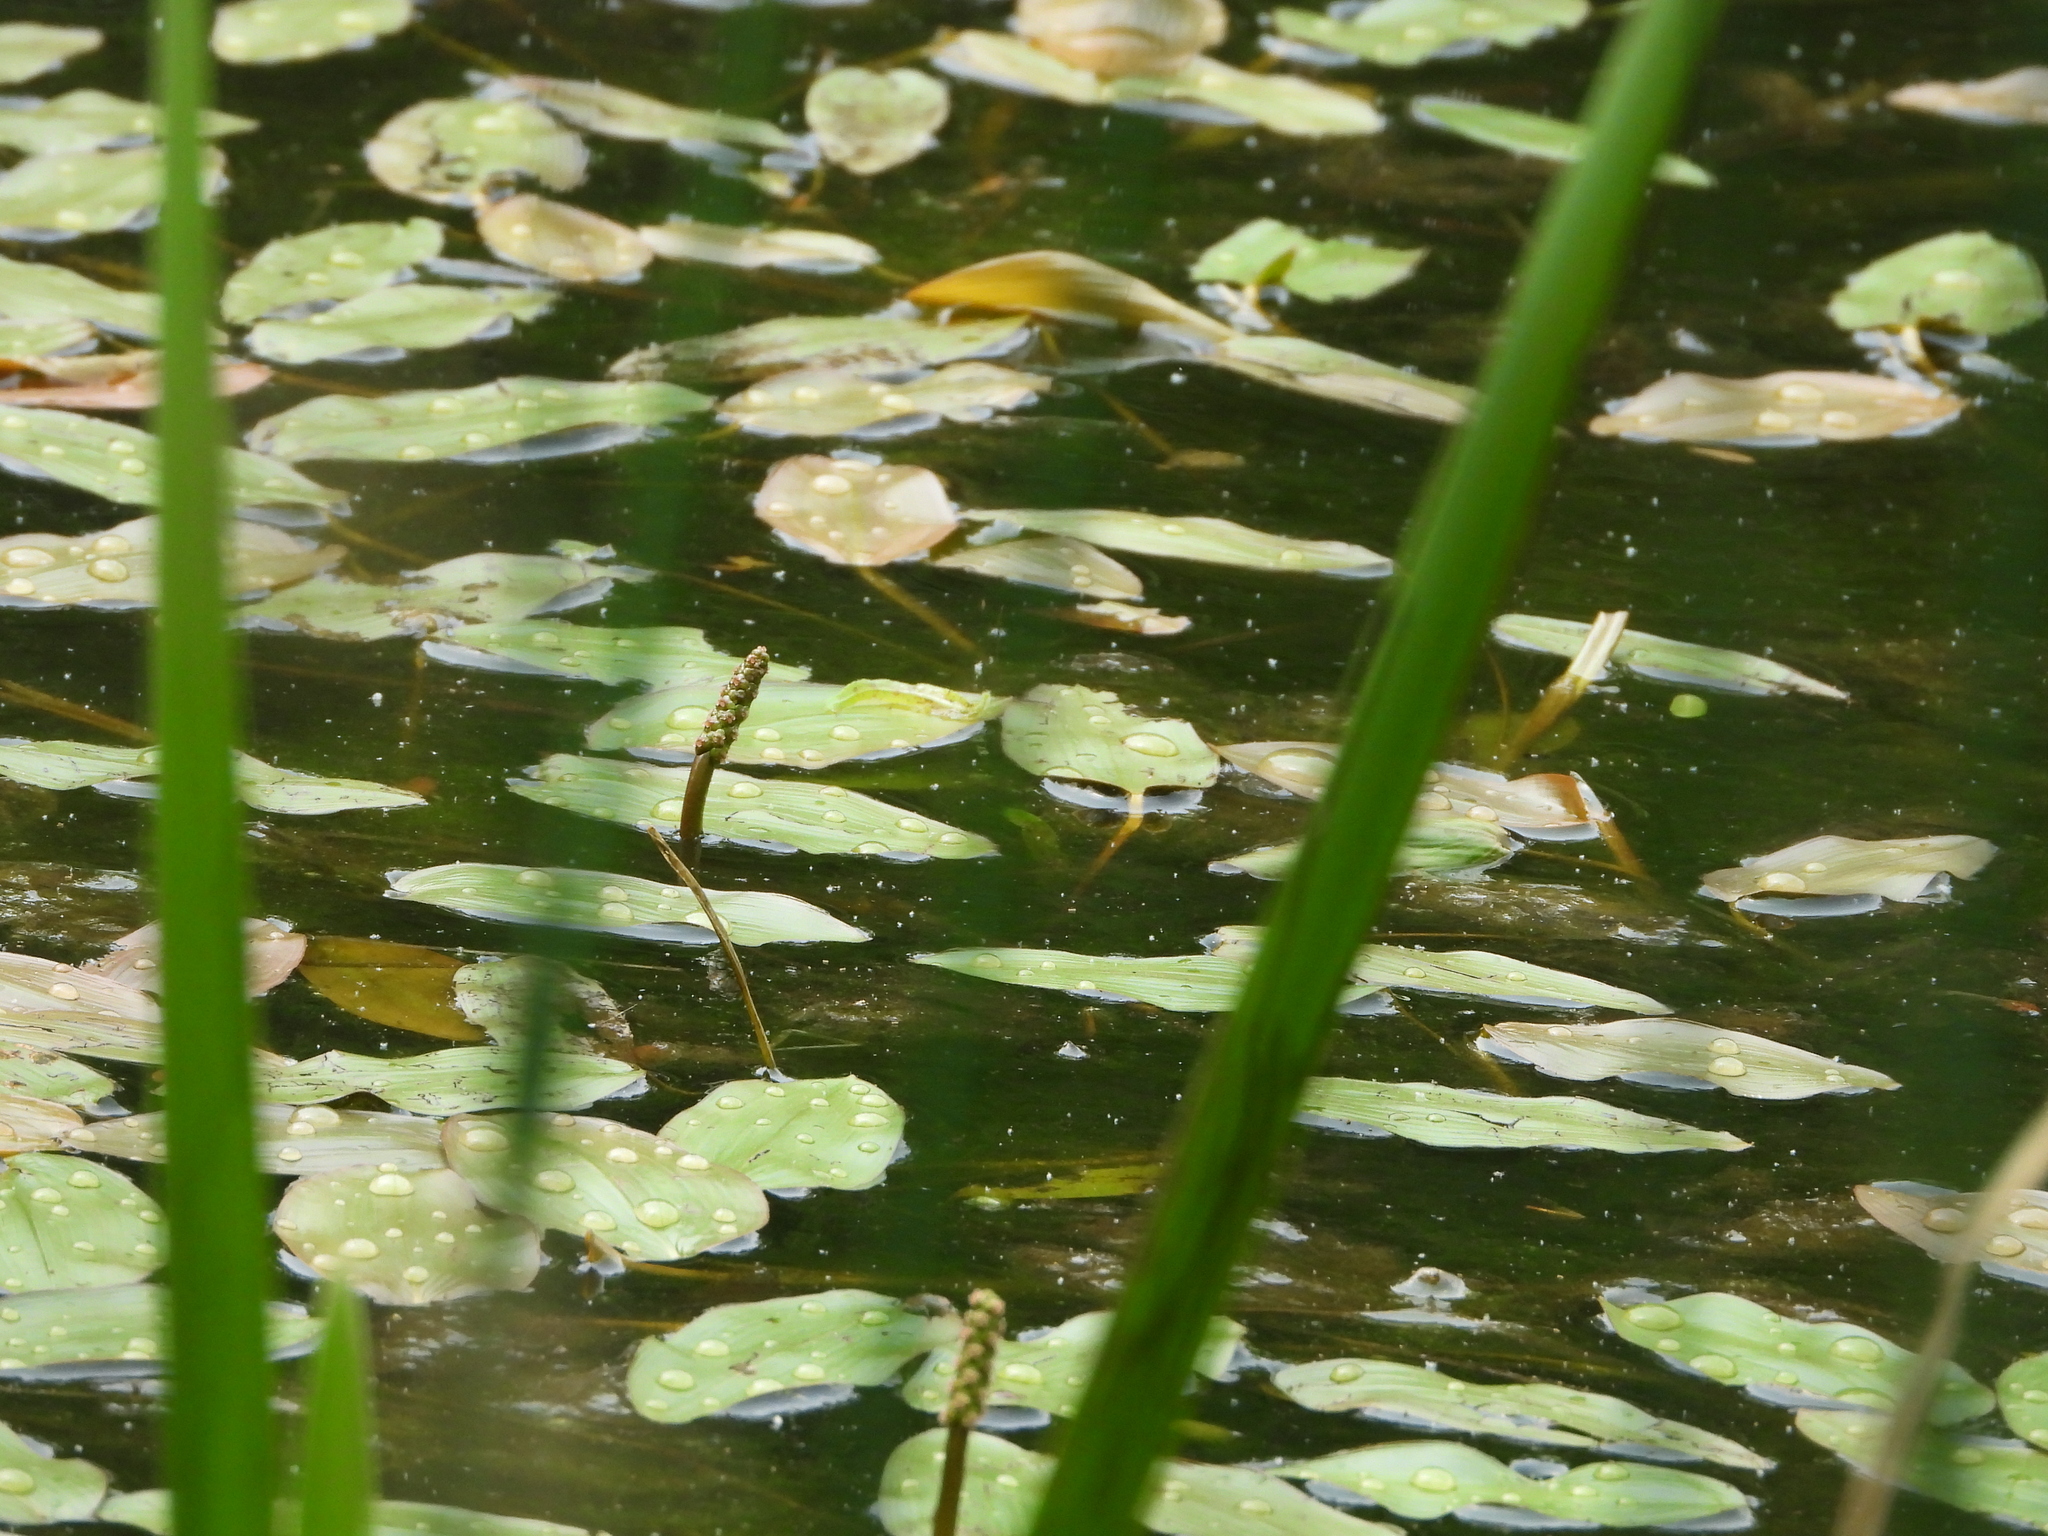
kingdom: Plantae
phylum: Tracheophyta
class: Liliopsida
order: Alismatales
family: Potamogetonaceae
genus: Potamogeton
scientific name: Potamogeton natans
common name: Broad-leaved pondweed
